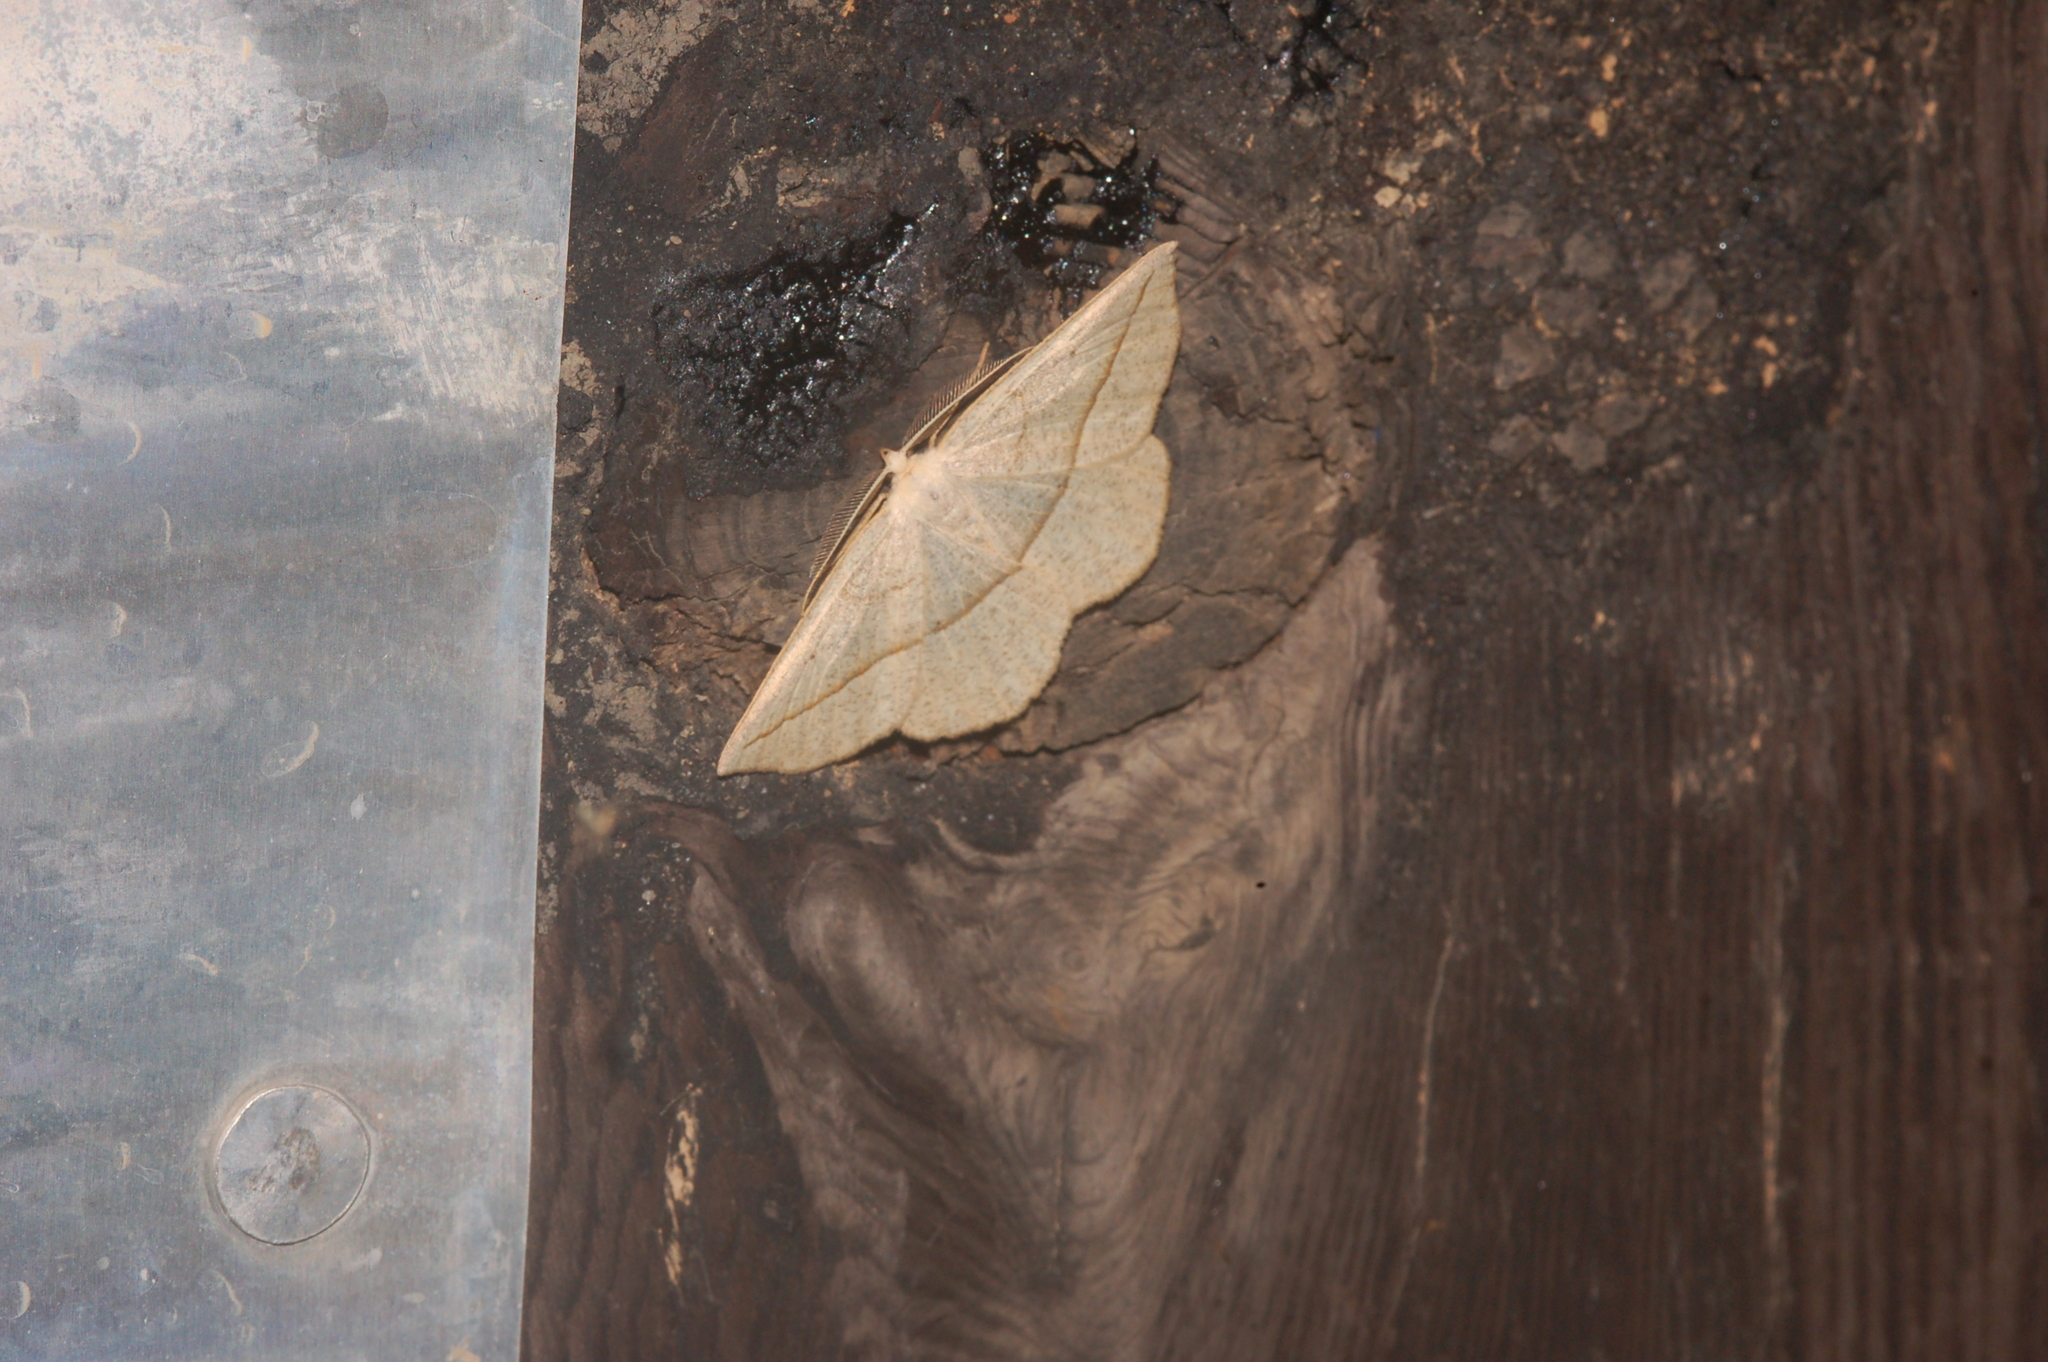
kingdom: Animalia
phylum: Arthropoda
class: Insecta
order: Lepidoptera
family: Geometridae
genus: Eusarca
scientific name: Eusarca confusaria
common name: Confused eusarca
